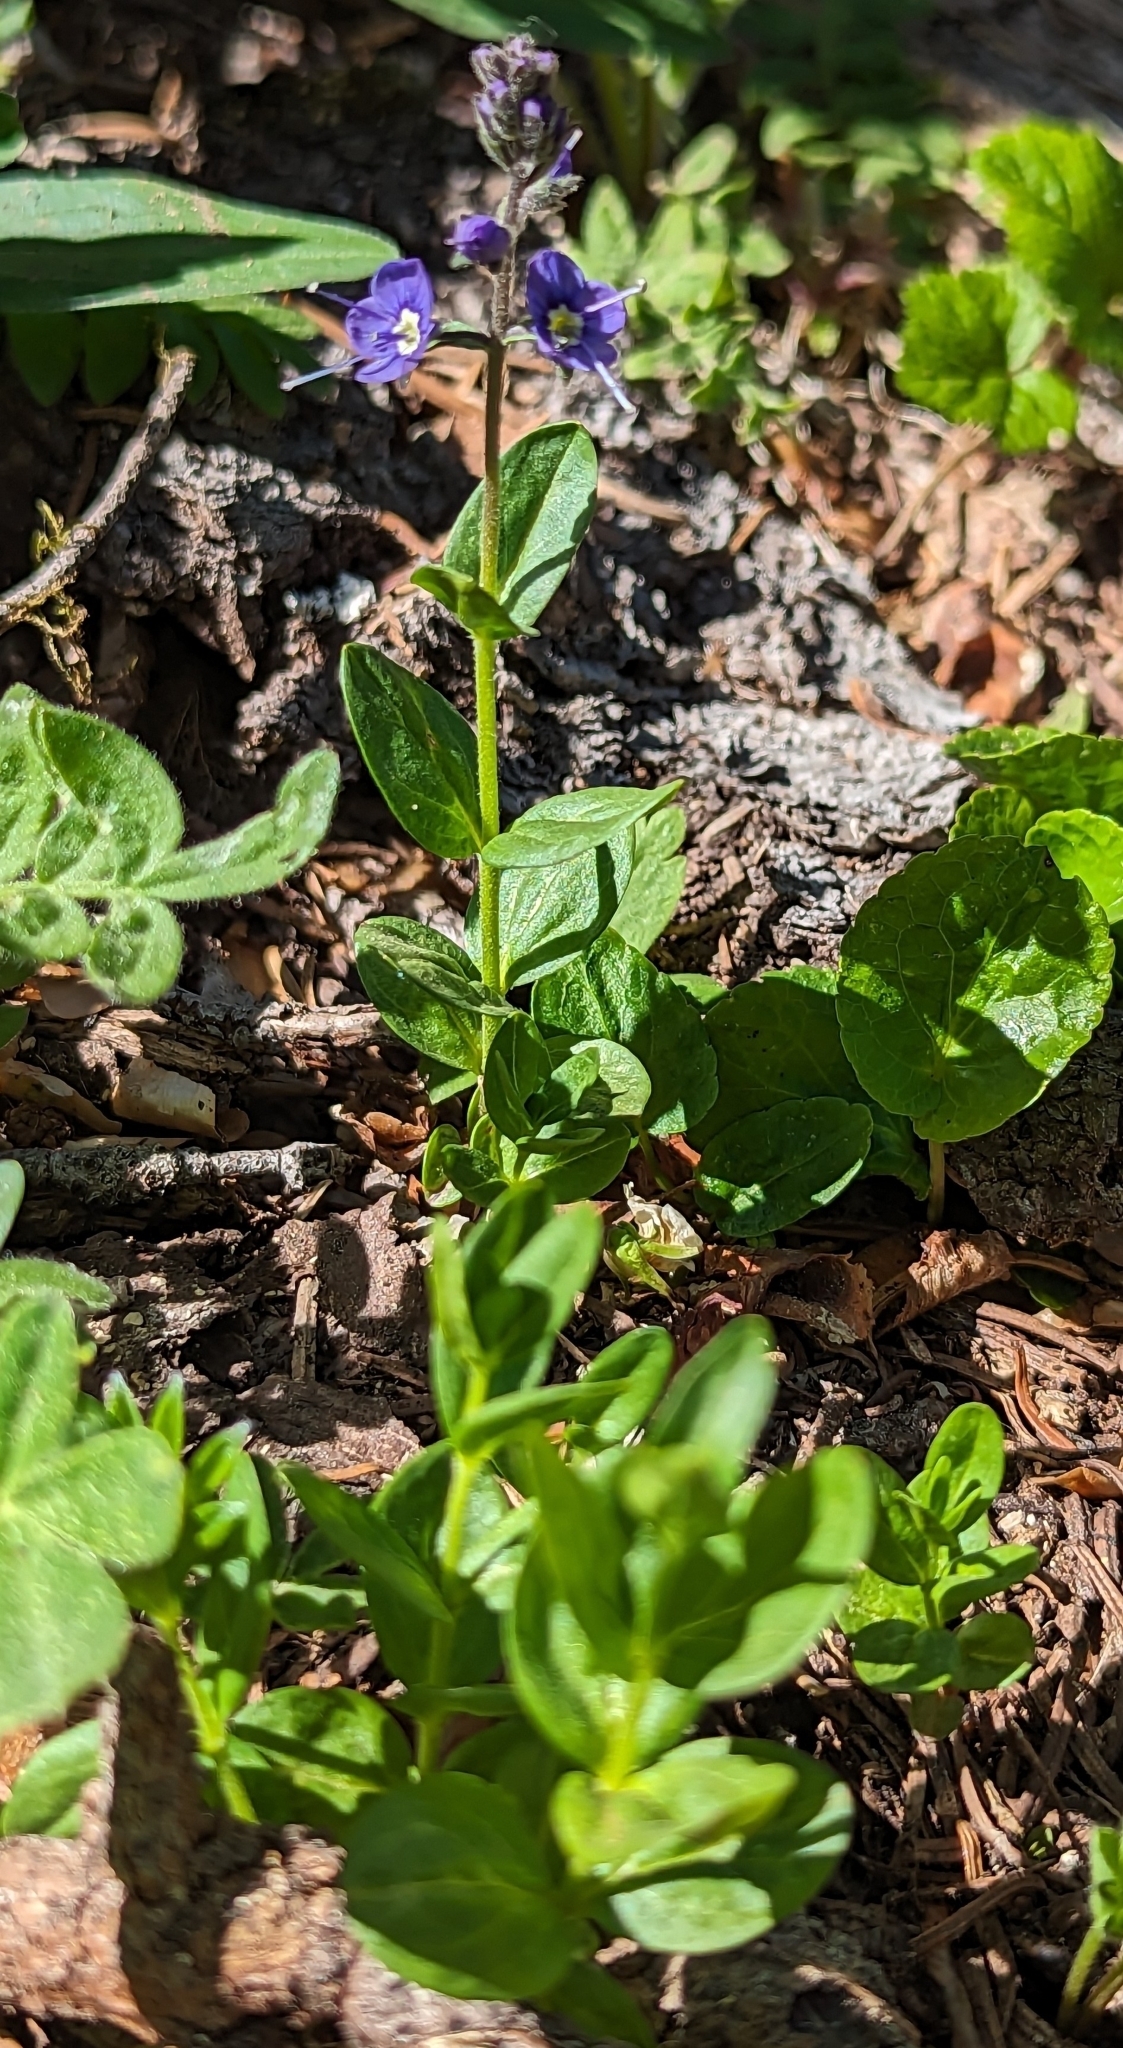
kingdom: Plantae
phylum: Tracheophyta
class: Magnoliopsida
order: Lamiales
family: Plantaginaceae
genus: Veronica
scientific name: Veronica cusickii
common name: Cusick's speedwell
